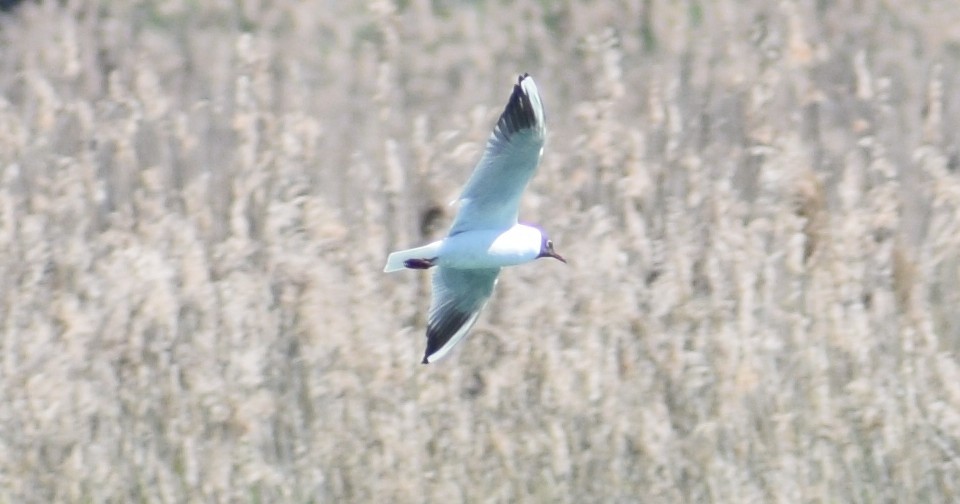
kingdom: Animalia
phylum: Chordata
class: Aves
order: Charadriiformes
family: Laridae
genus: Chroicocephalus
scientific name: Chroicocephalus ridibundus
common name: Black-headed gull
